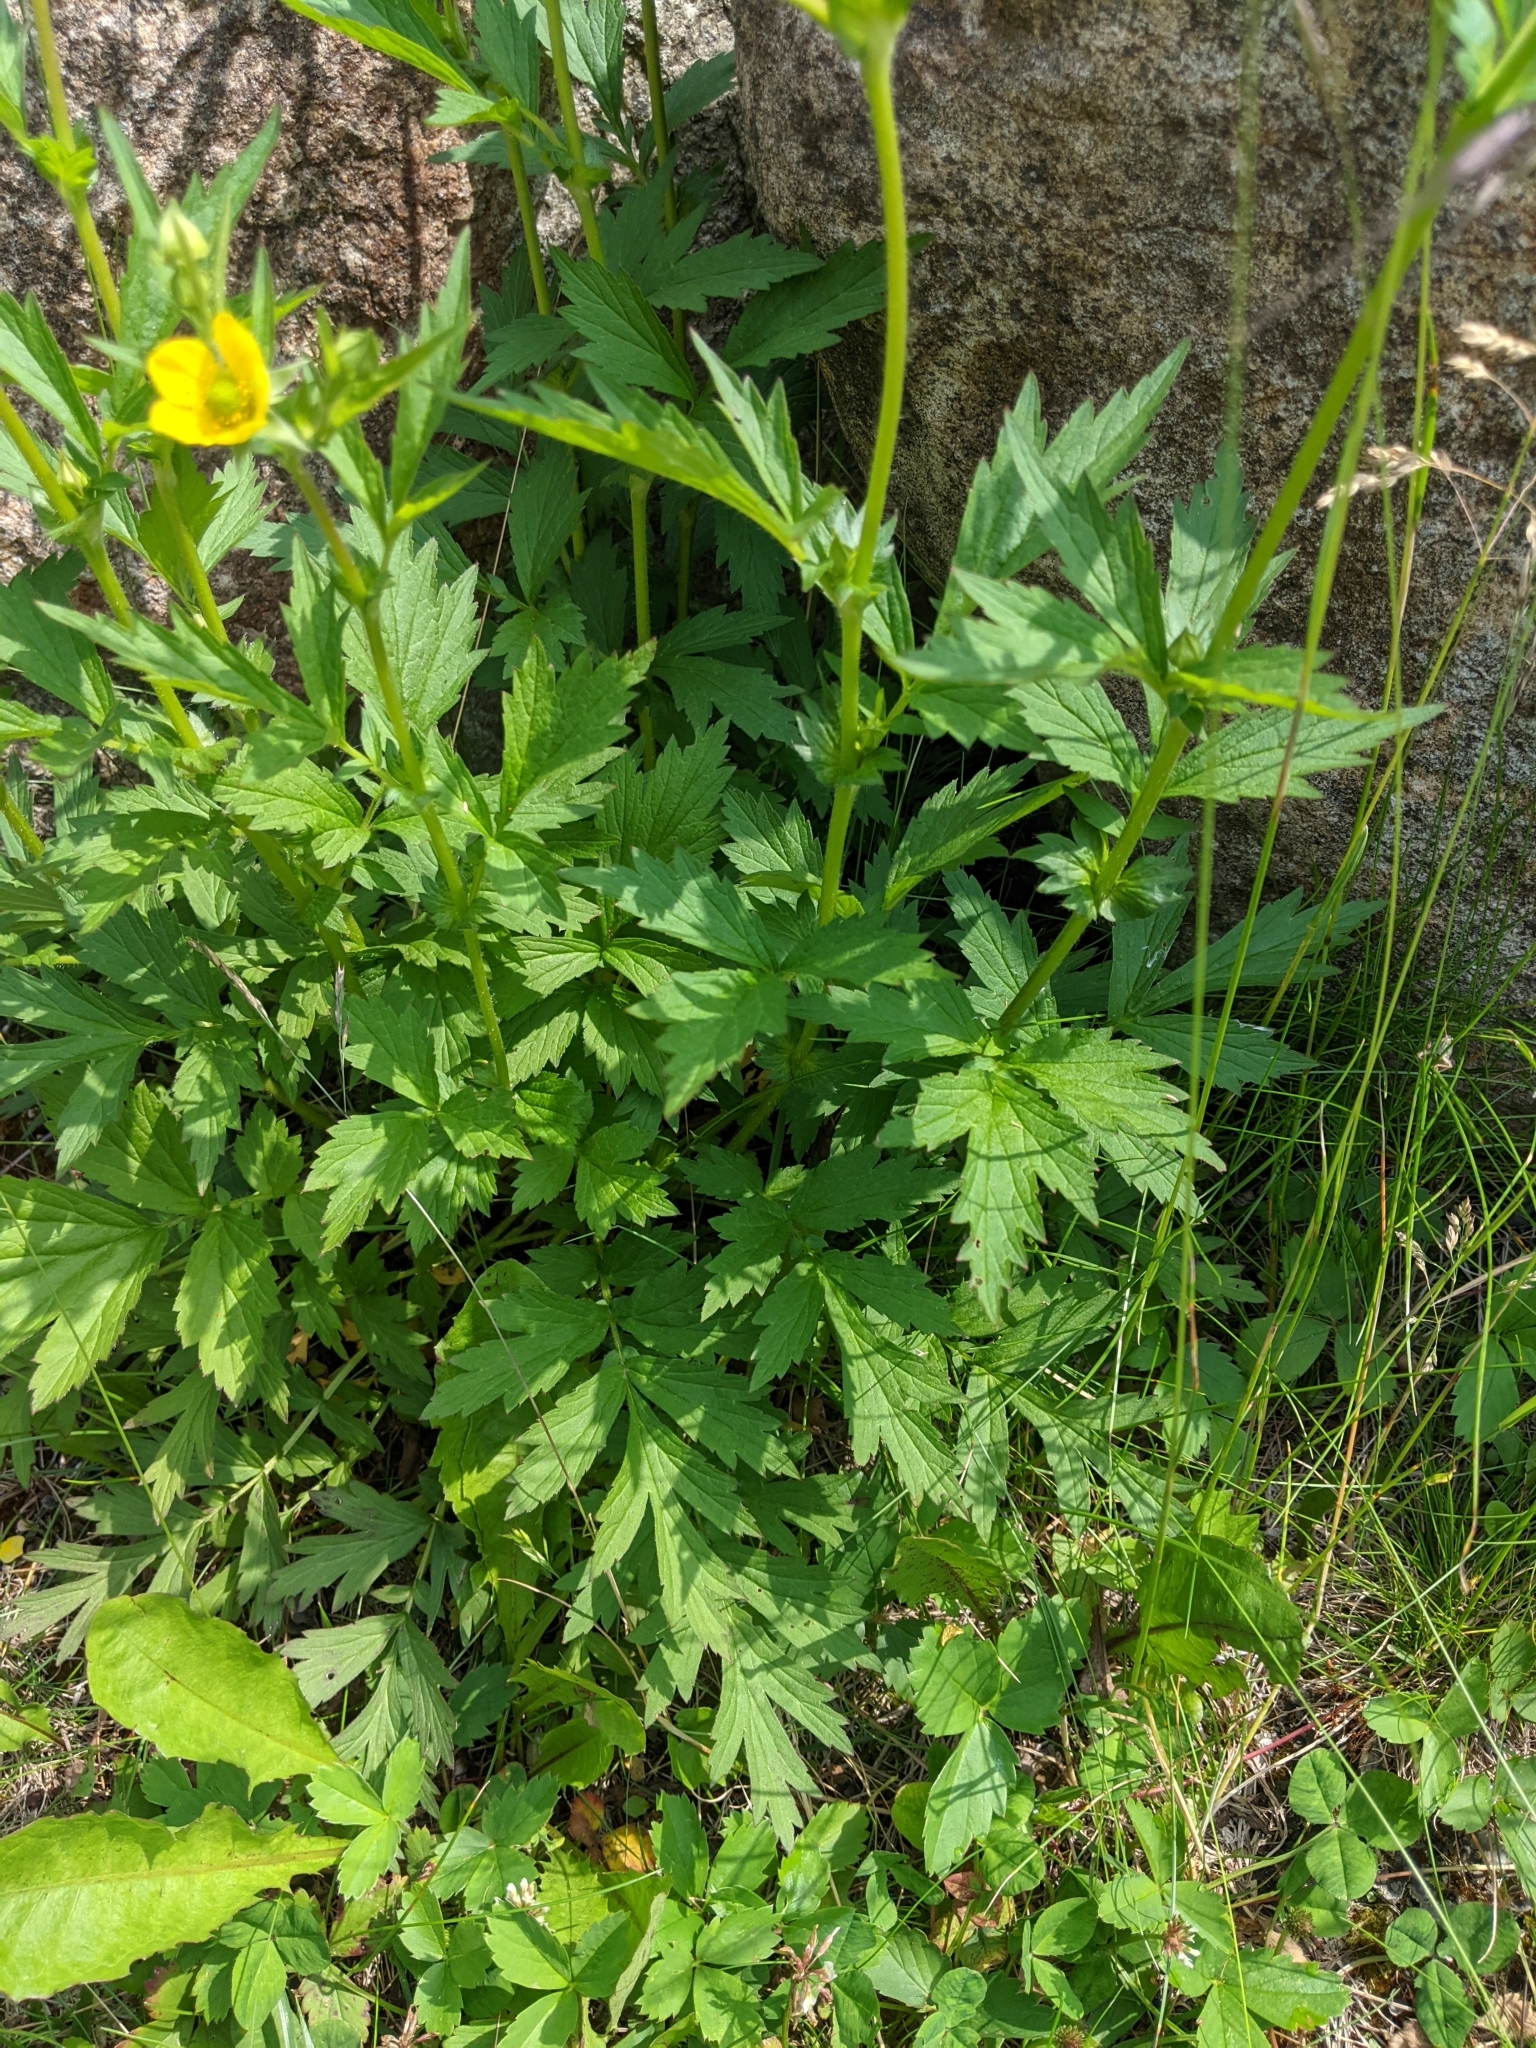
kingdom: Plantae
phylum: Tracheophyta
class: Magnoliopsida
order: Rosales
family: Rosaceae
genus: Geum
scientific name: Geum aleppicum
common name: Yellow avens
